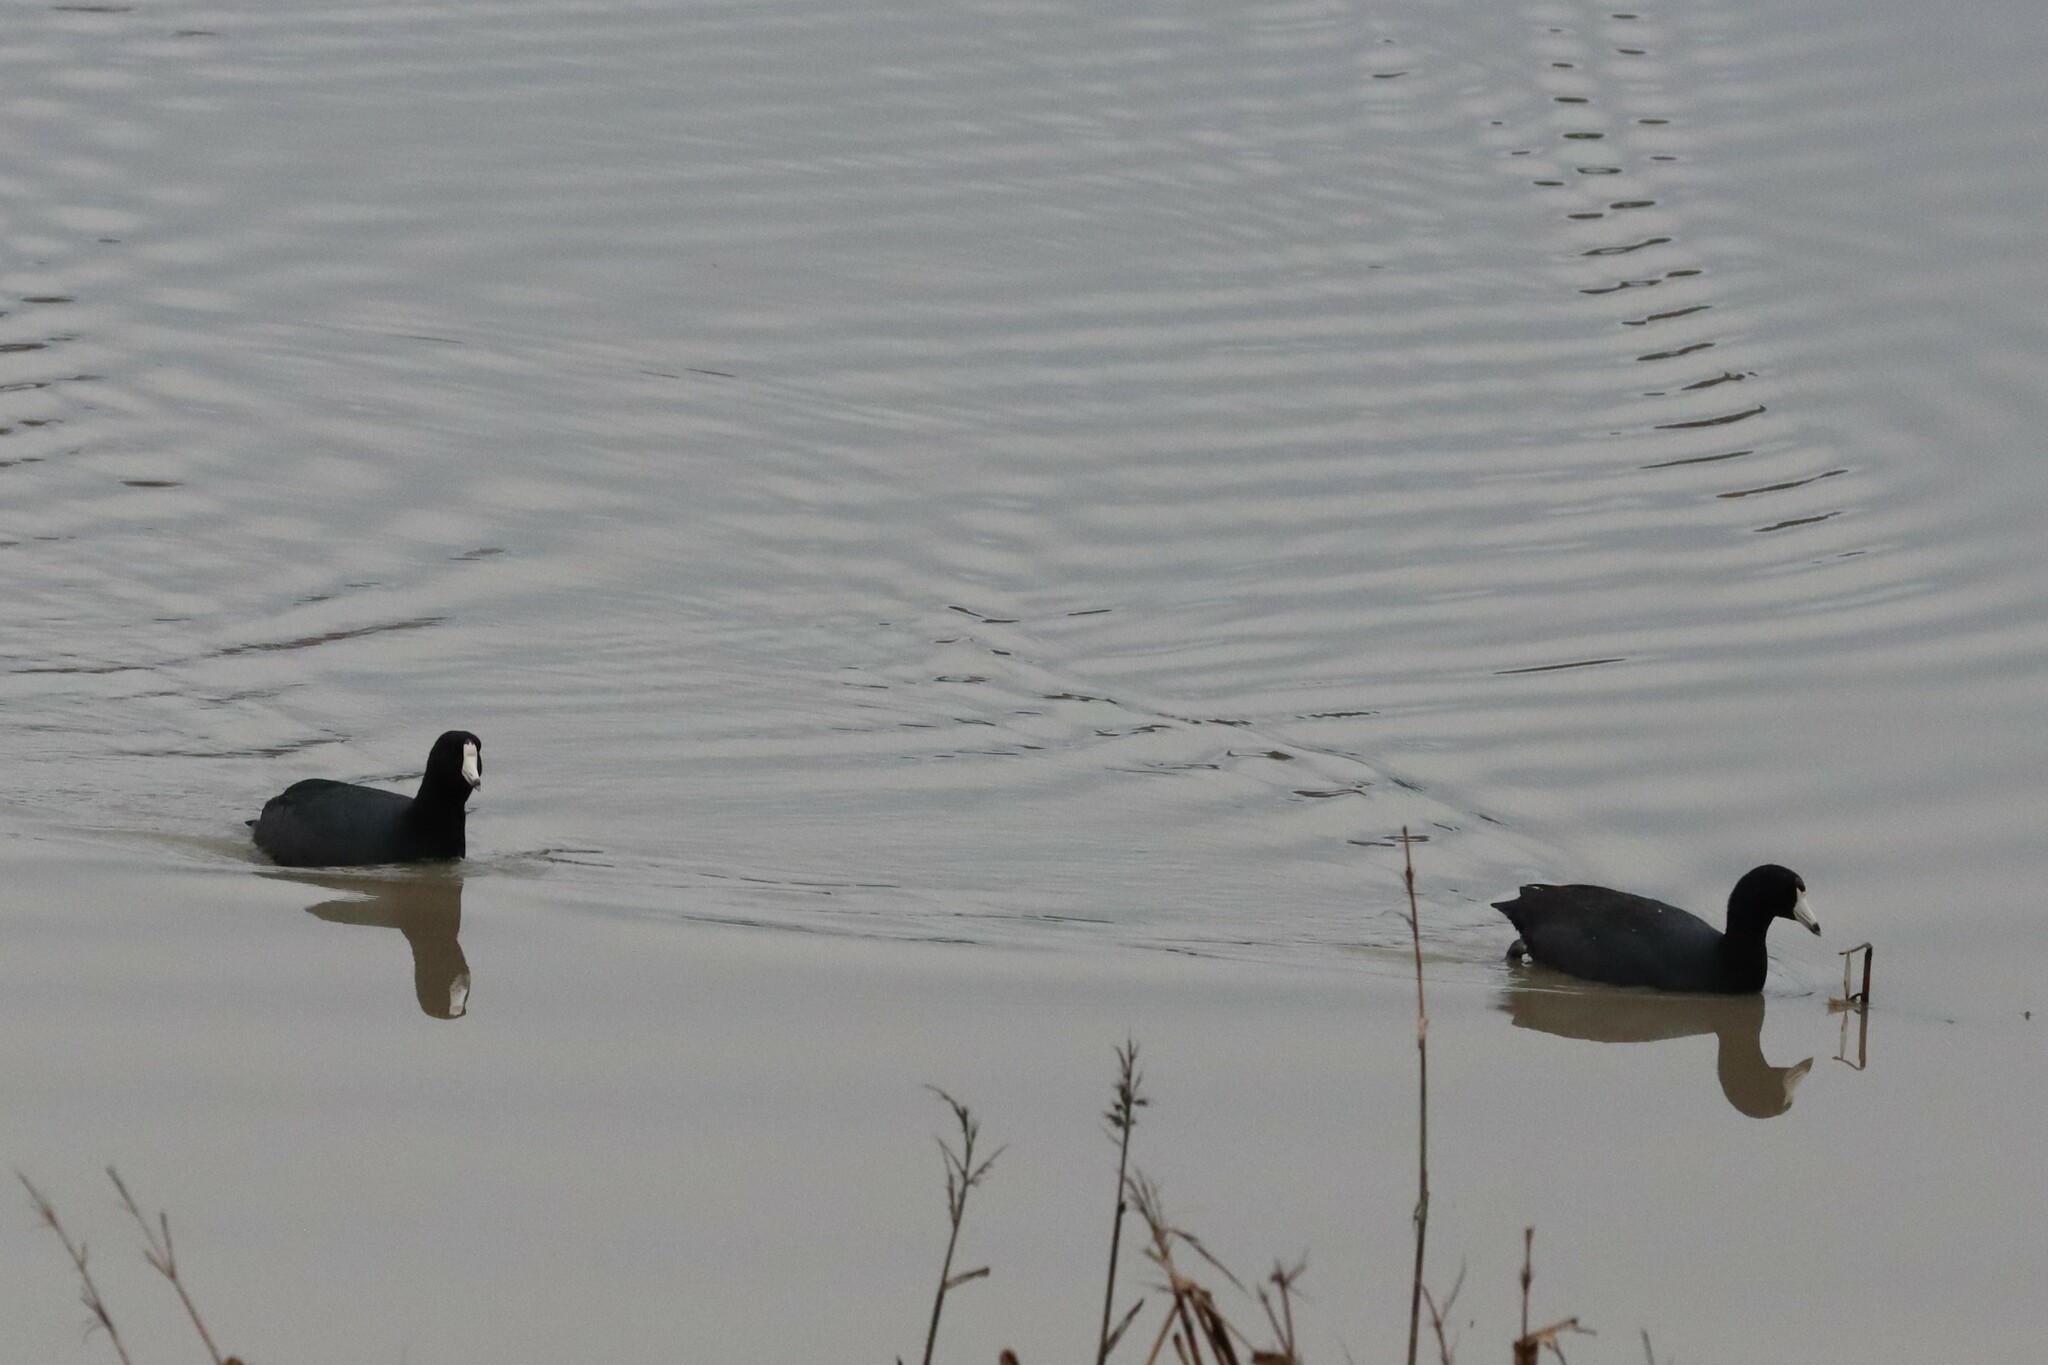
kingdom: Animalia
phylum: Chordata
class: Aves
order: Gruiformes
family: Rallidae
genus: Fulica
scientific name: Fulica americana
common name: American coot
